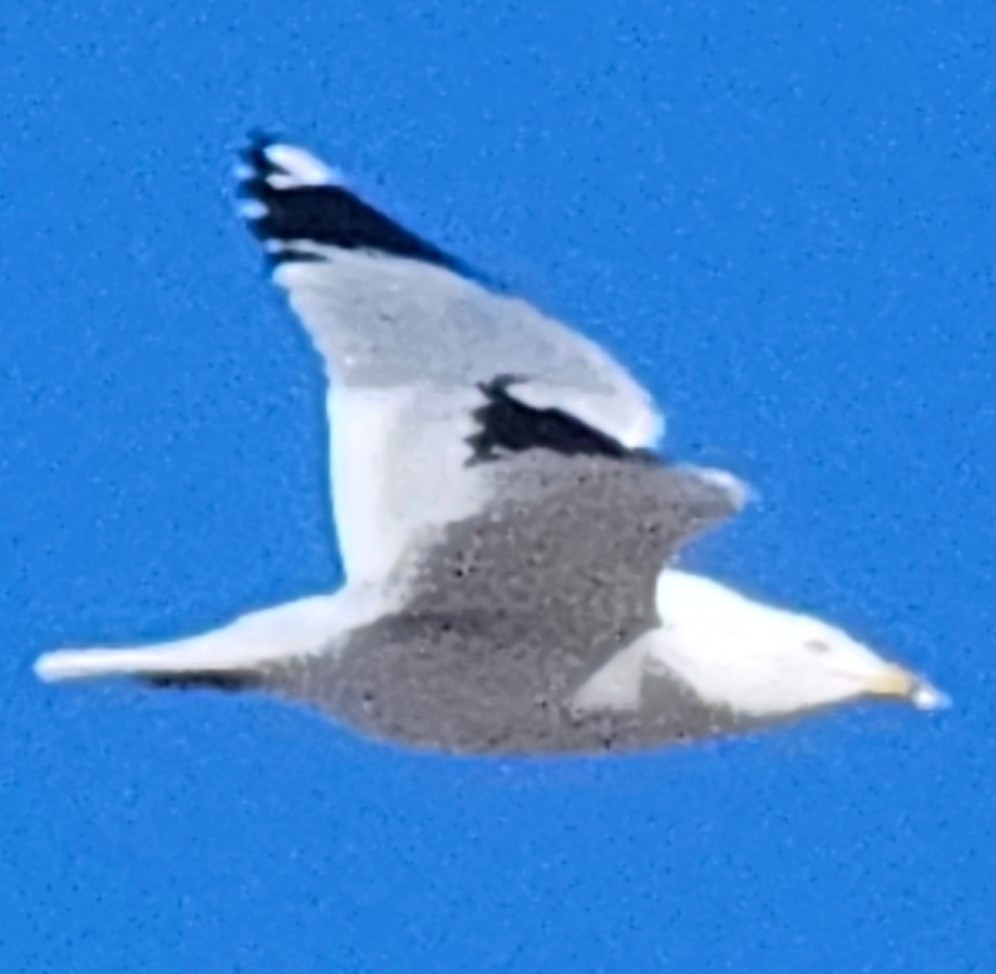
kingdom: Animalia
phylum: Chordata
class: Aves
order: Charadriiformes
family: Laridae
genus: Larus
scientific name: Larus delawarensis
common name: Ring-billed gull
